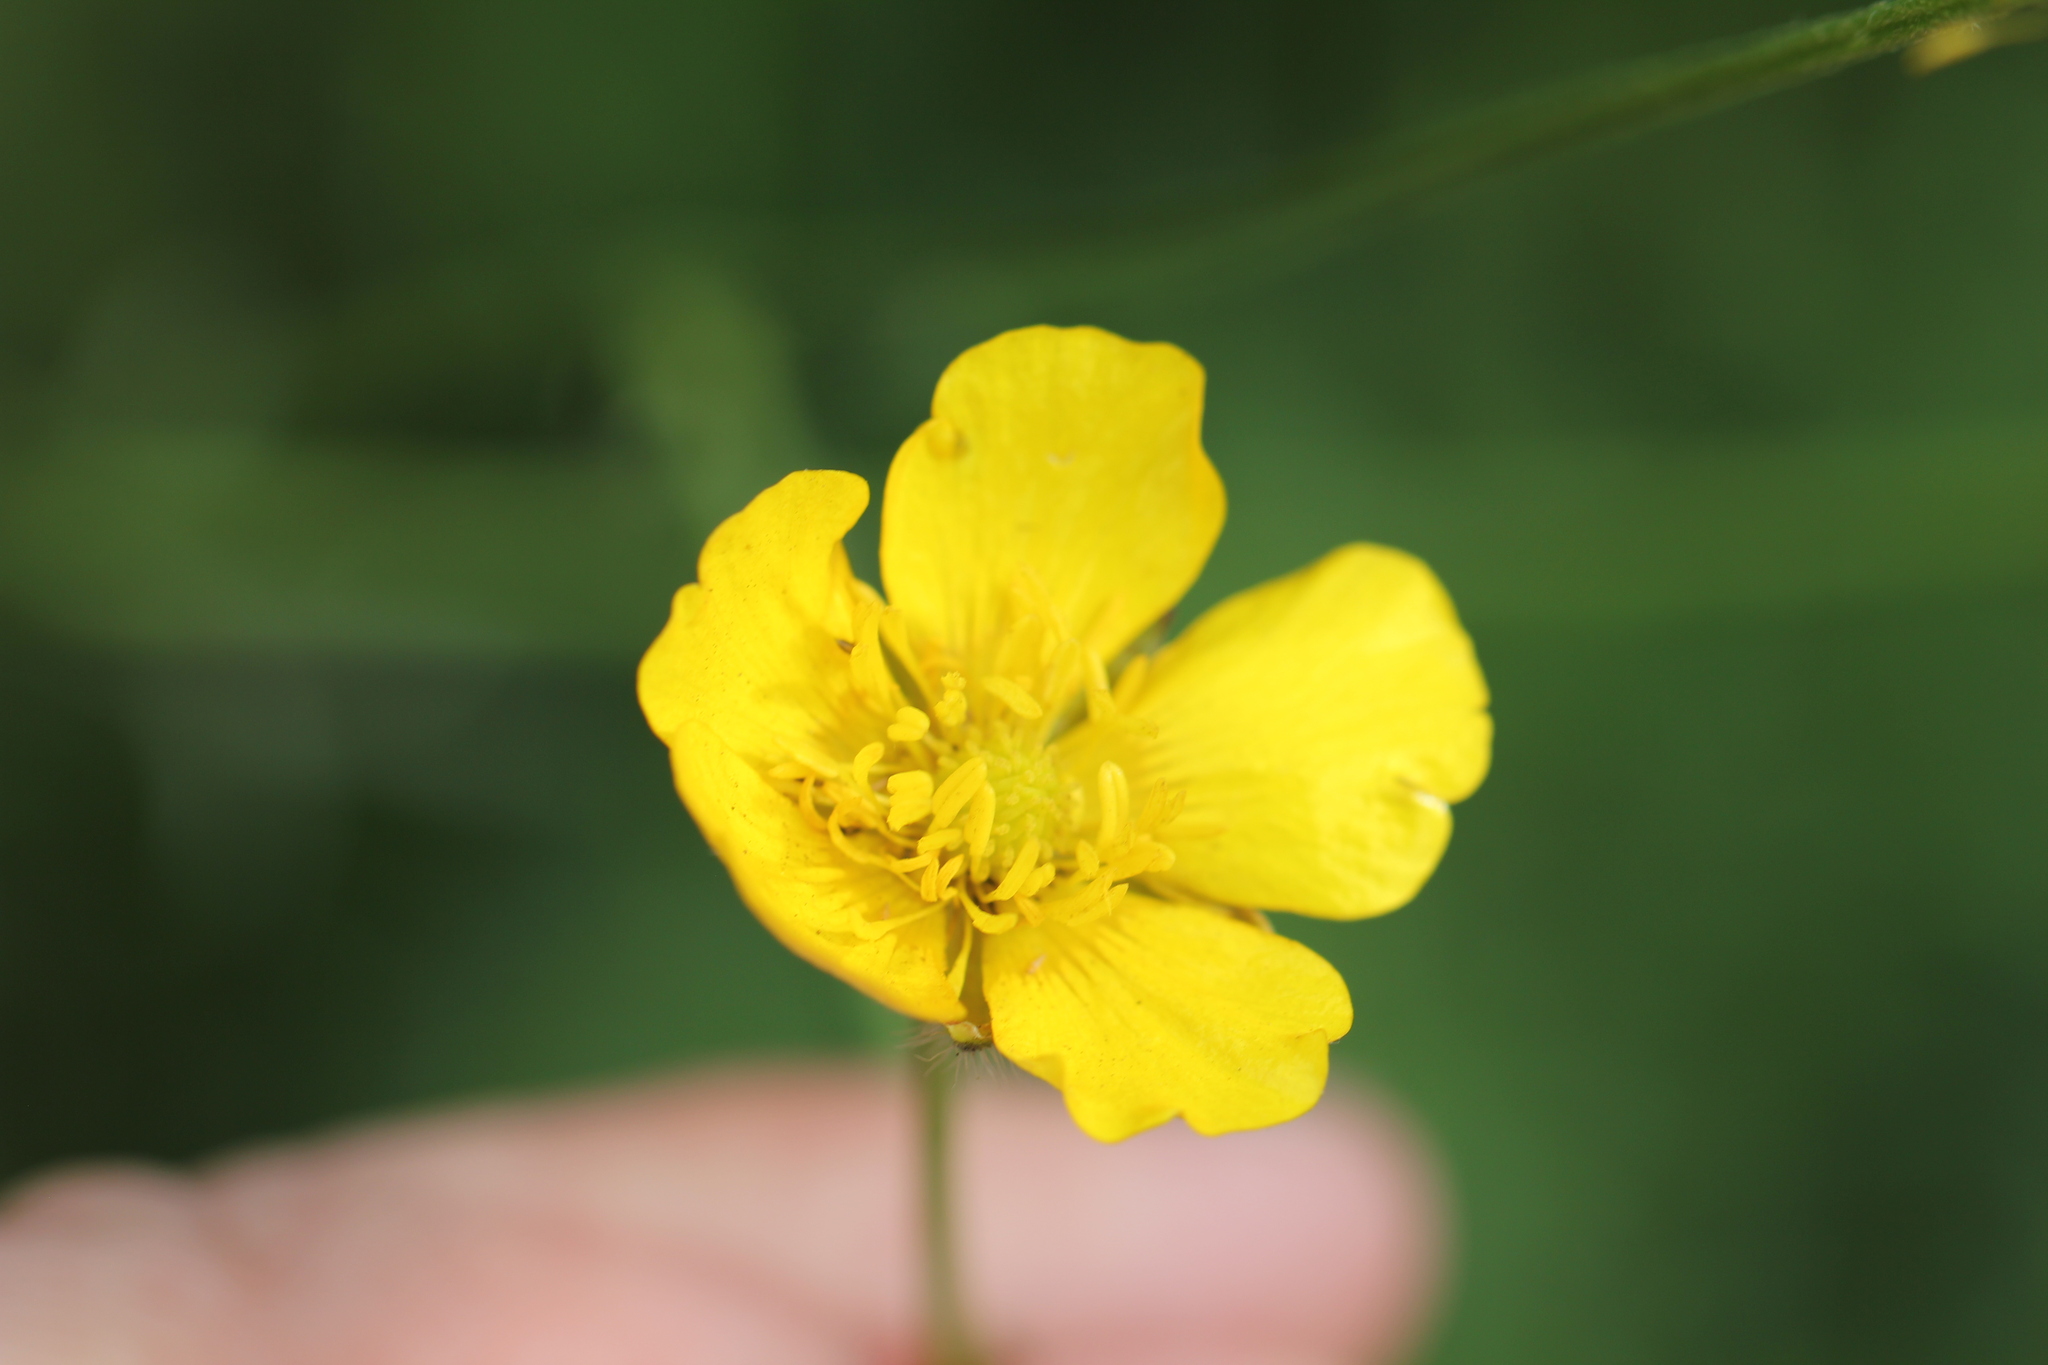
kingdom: Plantae
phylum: Tracheophyta
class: Magnoliopsida
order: Ranunculales
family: Ranunculaceae
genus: Ranunculus
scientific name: Ranunculus polyanthemos
